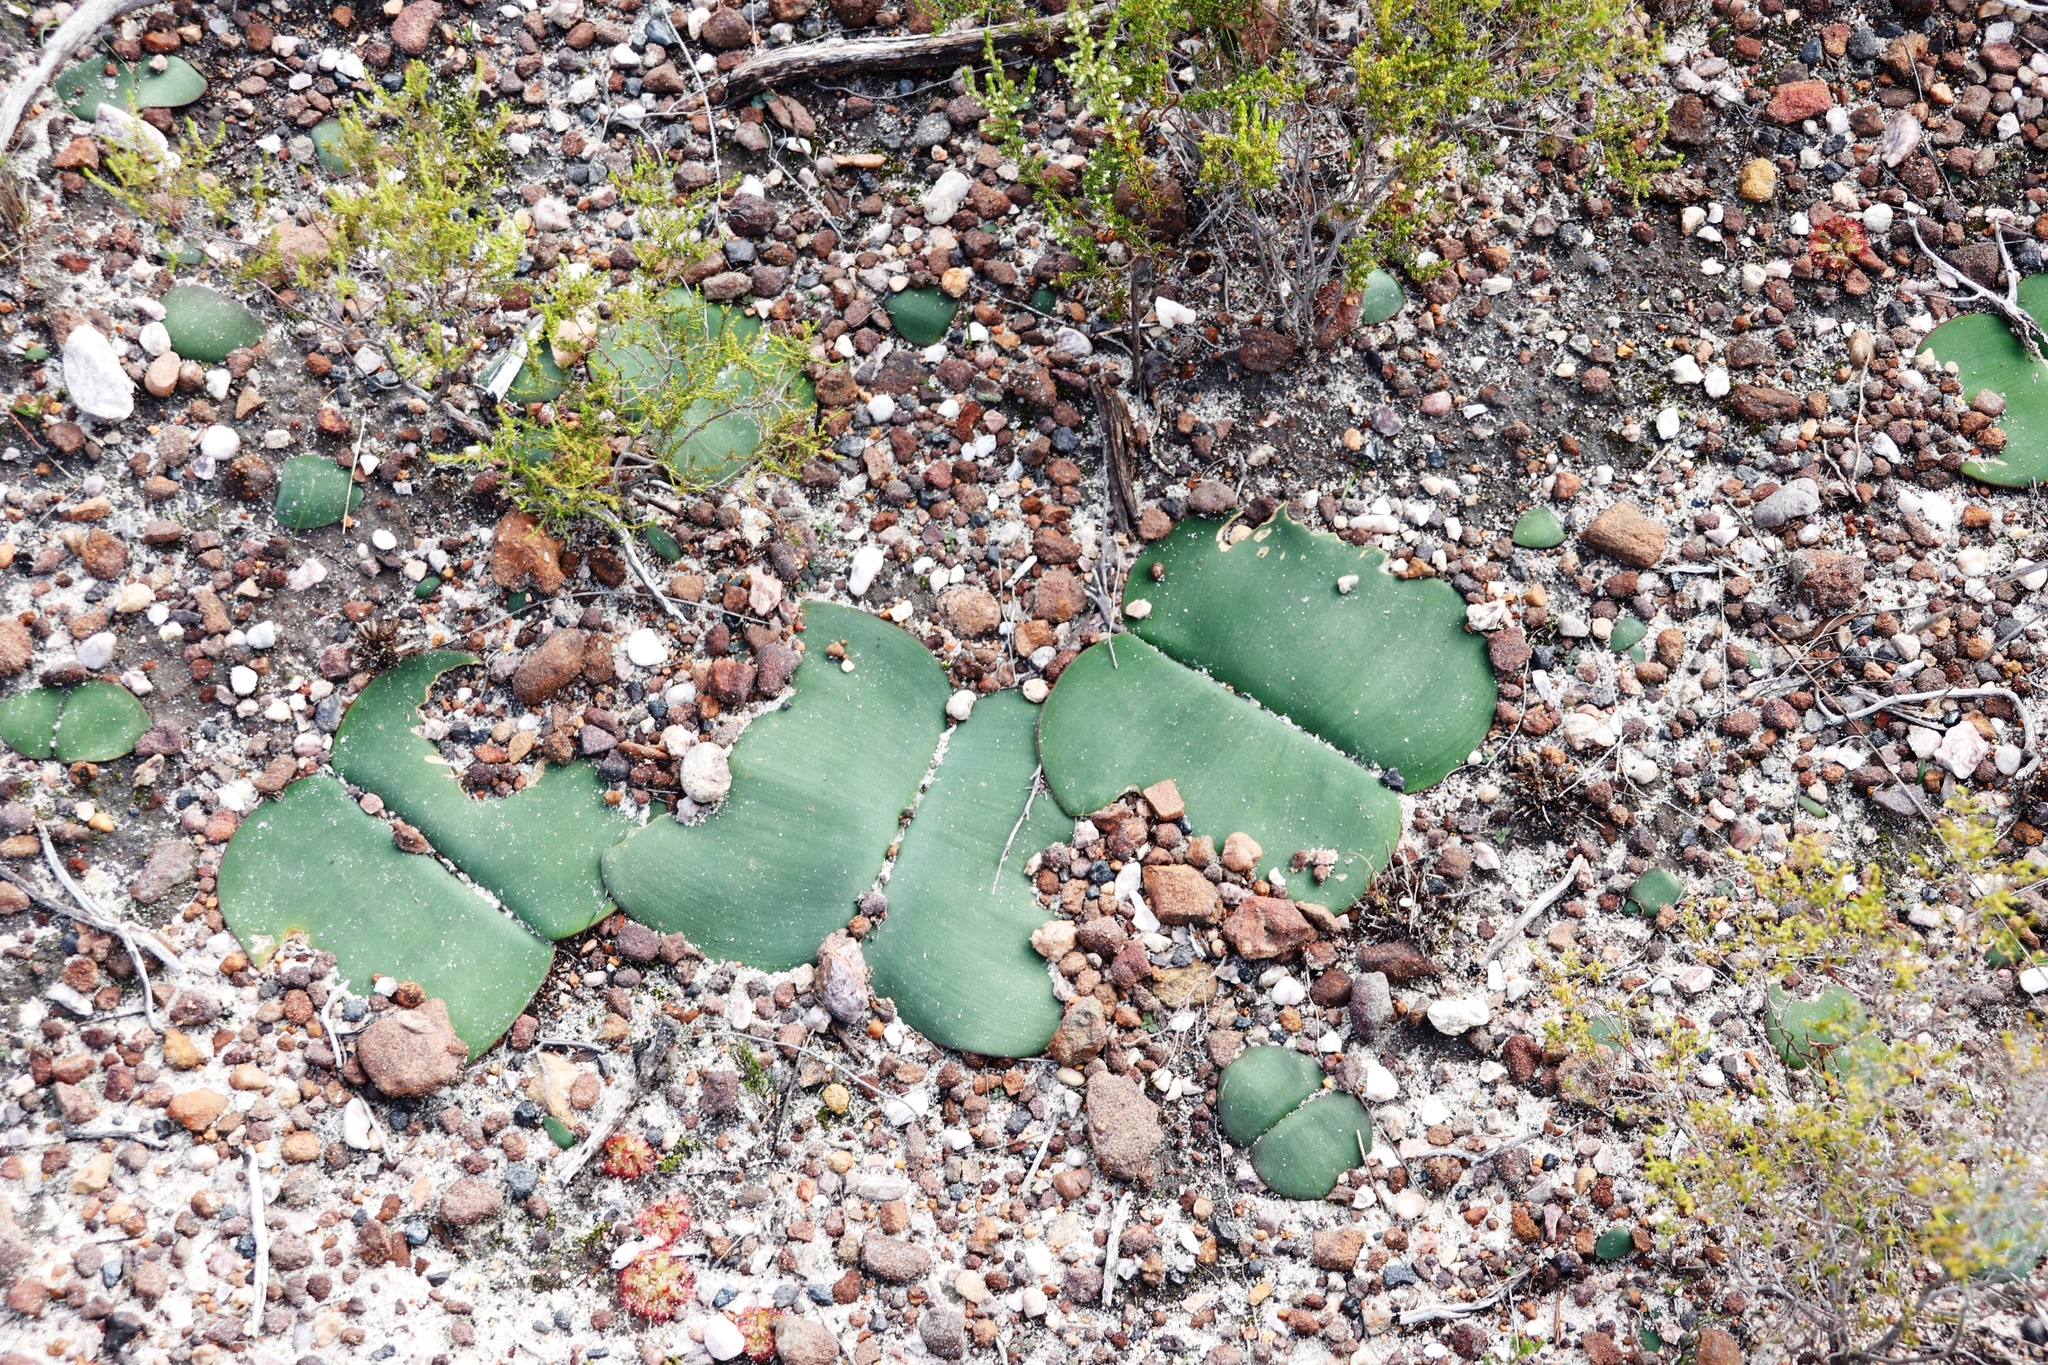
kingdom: Plantae
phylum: Tracheophyta
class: Liliopsida
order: Asparagales
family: Amaryllidaceae
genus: Haemanthus
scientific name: Haemanthus sanguineus
